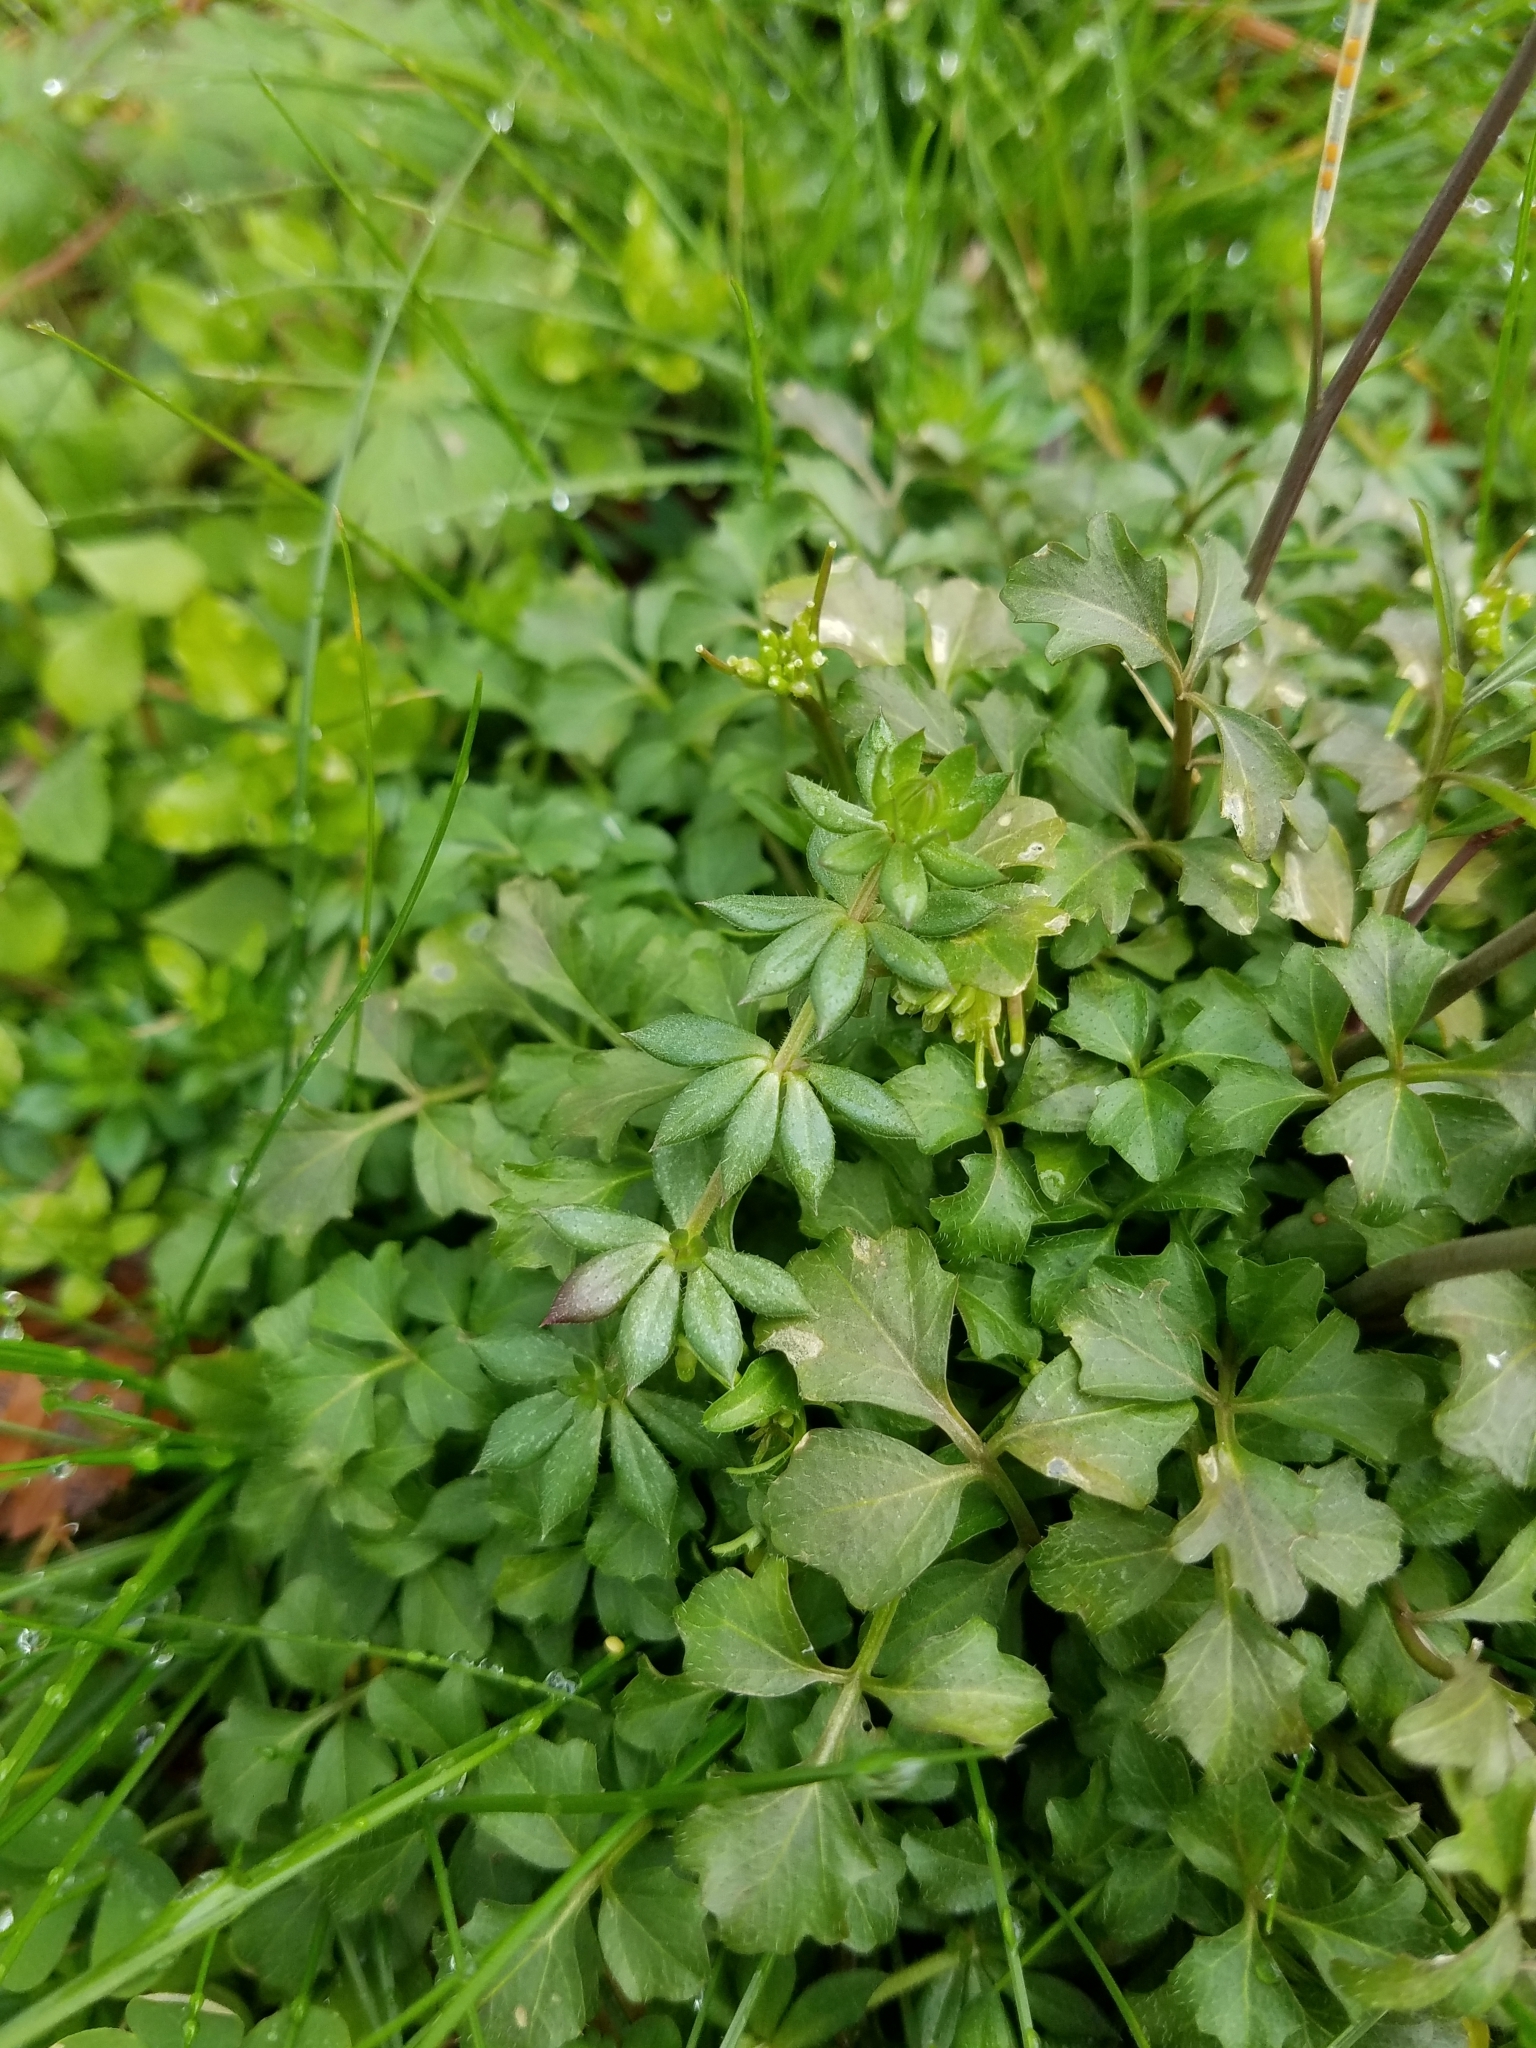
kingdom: Plantae
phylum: Tracheophyta
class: Magnoliopsida
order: Gentianales
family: Rubiaceae
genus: Sherardia
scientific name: Sherardia arvensis
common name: Field madder
